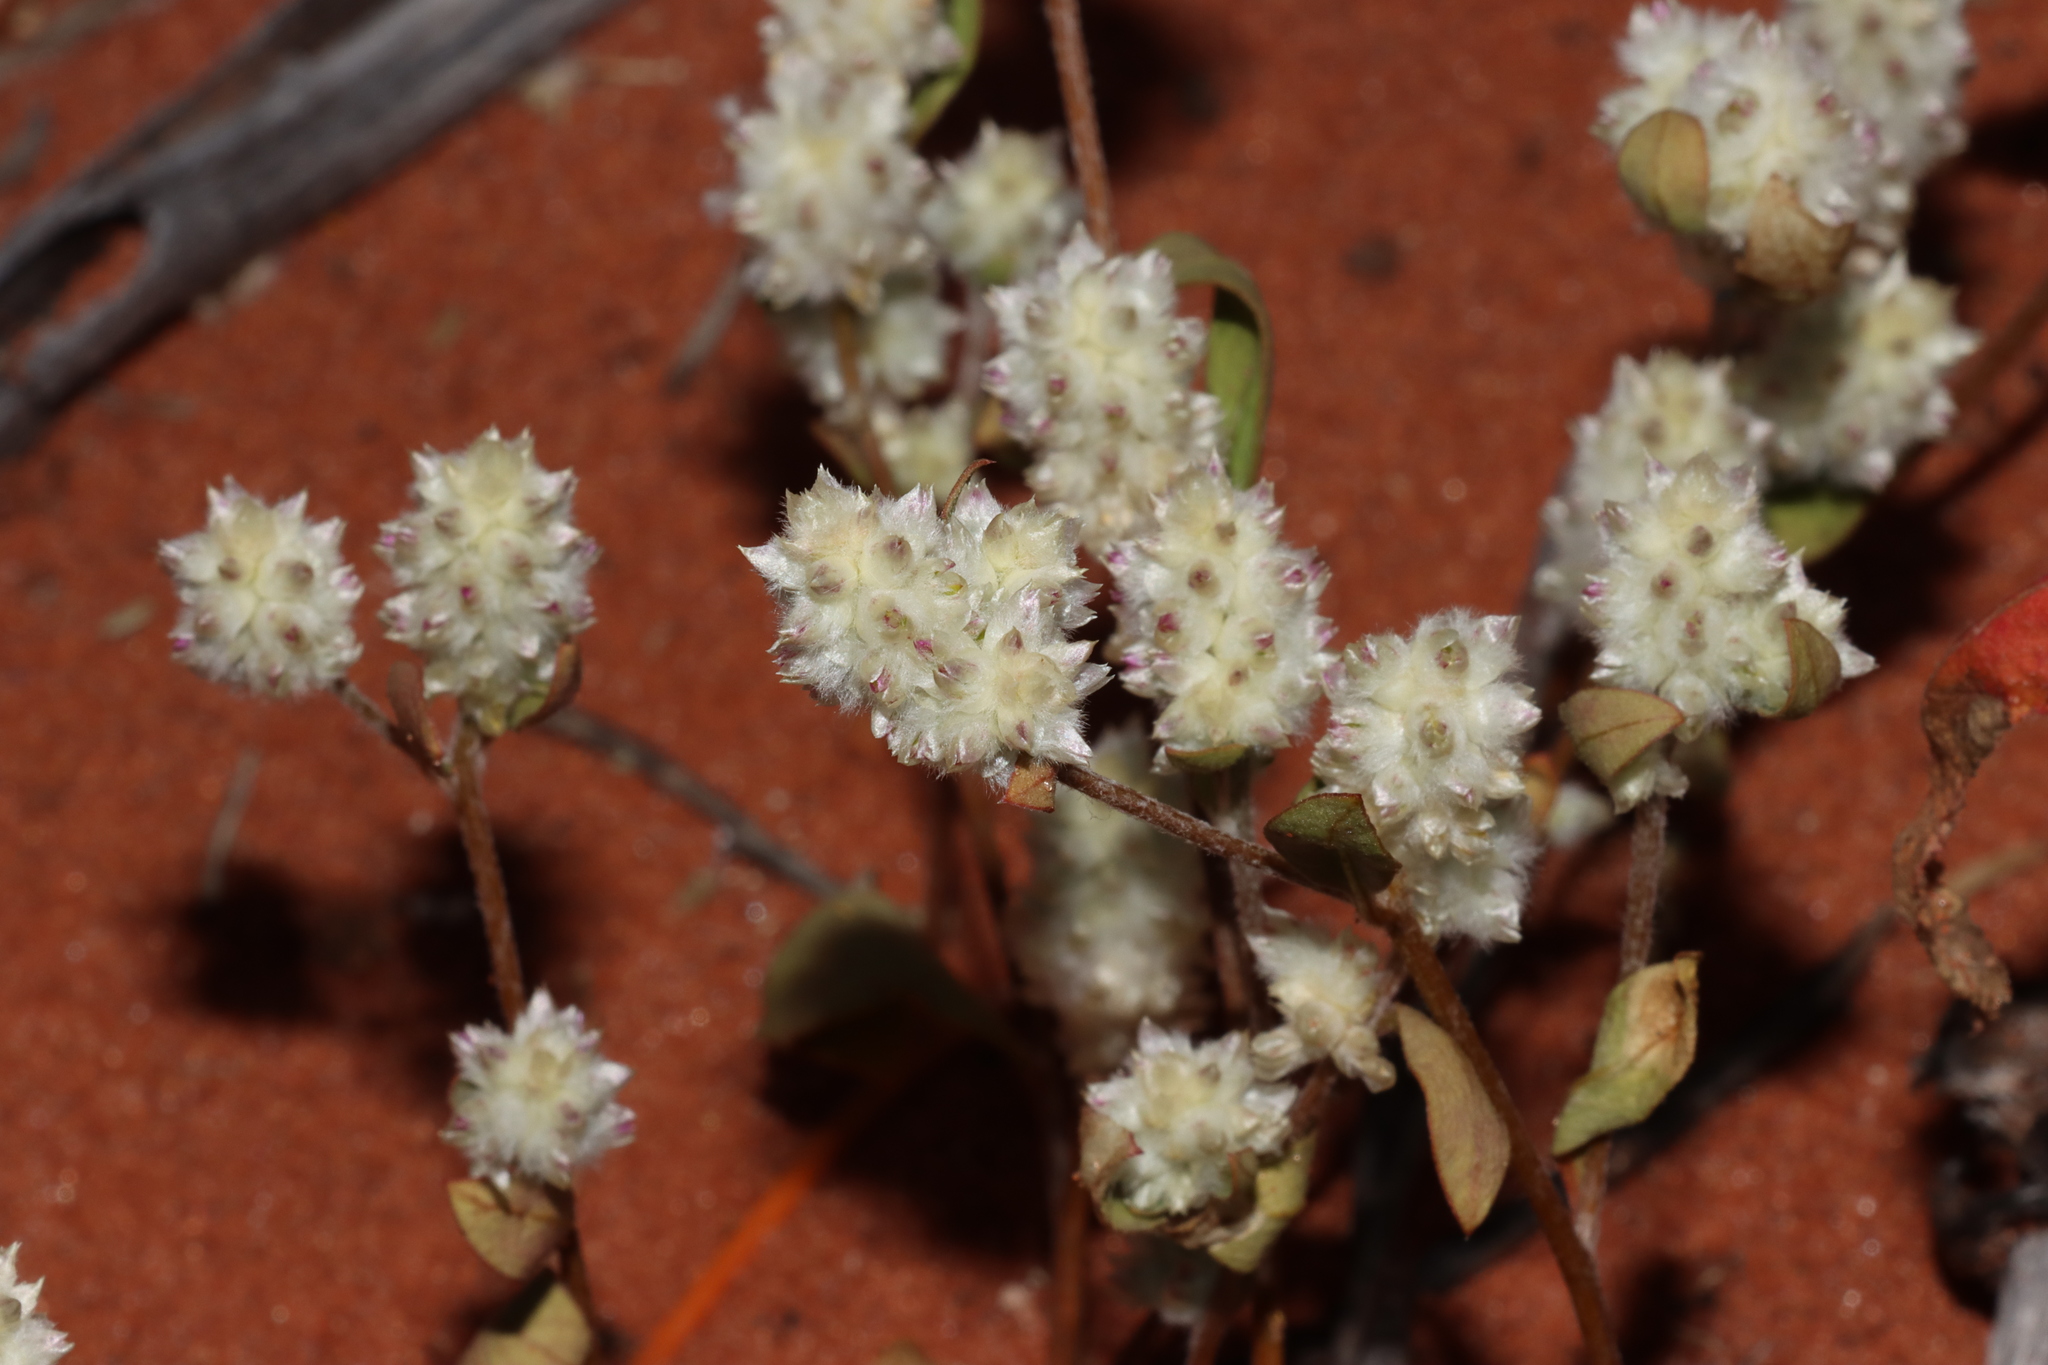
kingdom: Plantae
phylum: Tracheophyta
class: Magnoliopsida
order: Caryophyllales
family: Amaranthaceae
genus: Ptilotus
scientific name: Ptilotus chamaecladus
